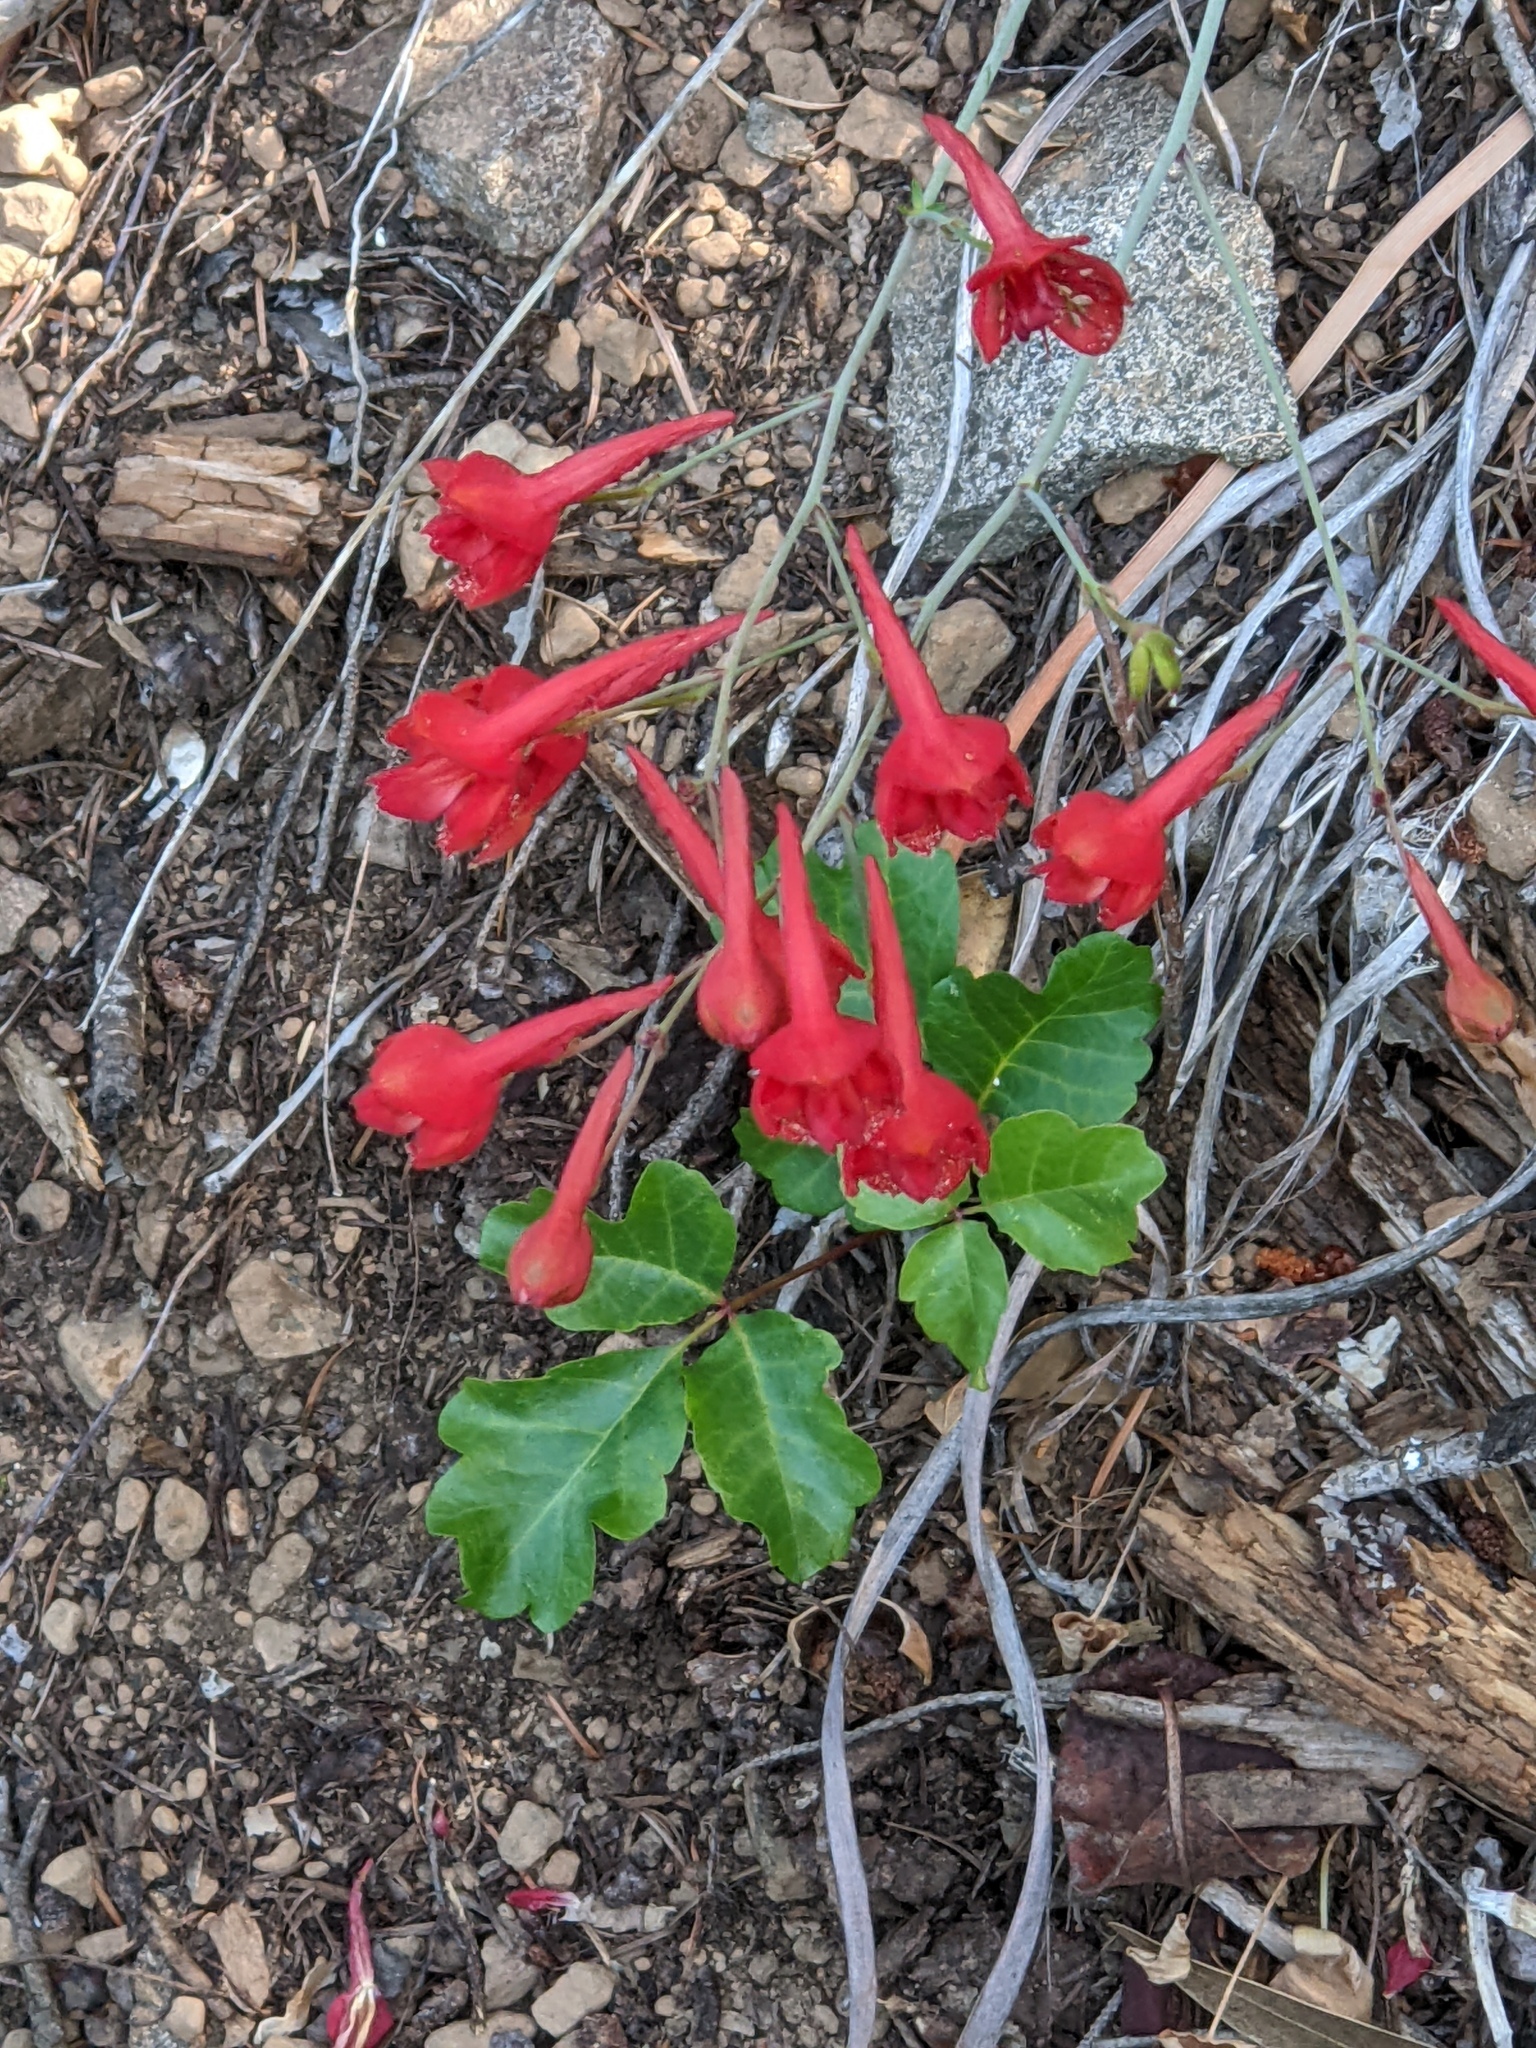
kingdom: Plantae
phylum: Tracheophyta
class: Magnoliopsida
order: Ranunculales
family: Ranunculaceae
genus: Delphinium
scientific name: Delphinium nudicaule
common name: Red larkspur
